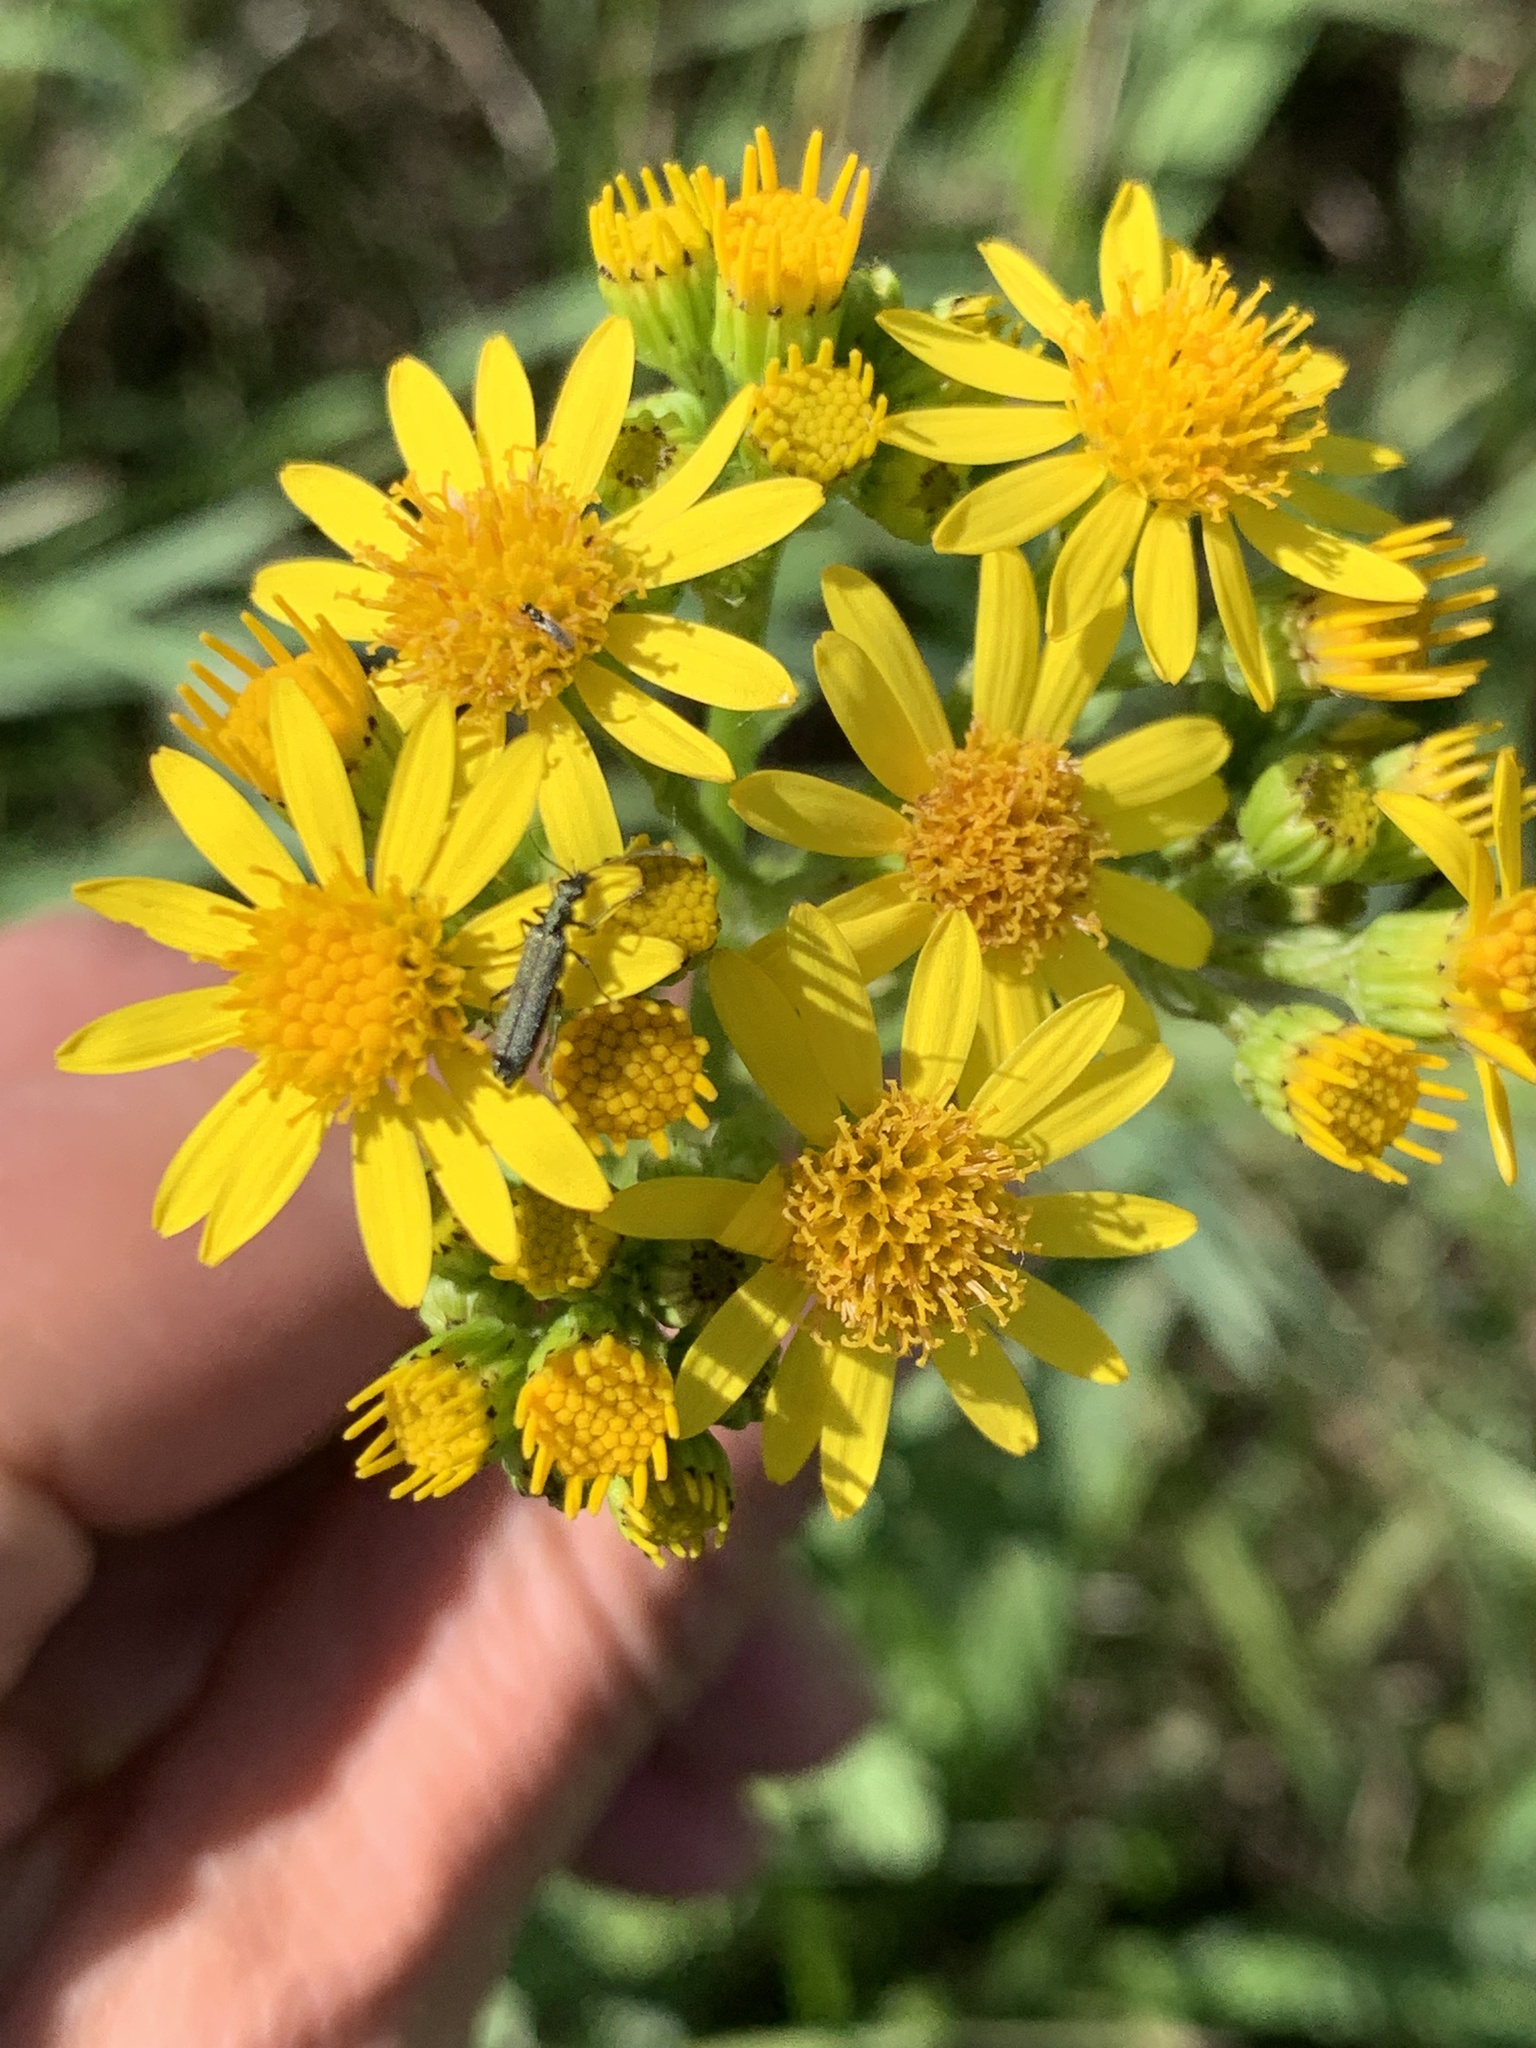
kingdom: Plantae
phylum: Tracheophyta
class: Magnoliopsida
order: Asterales
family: Asteraceae
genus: Jacobaea
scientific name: Jacobaea vulgaris
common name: Stinking willie
